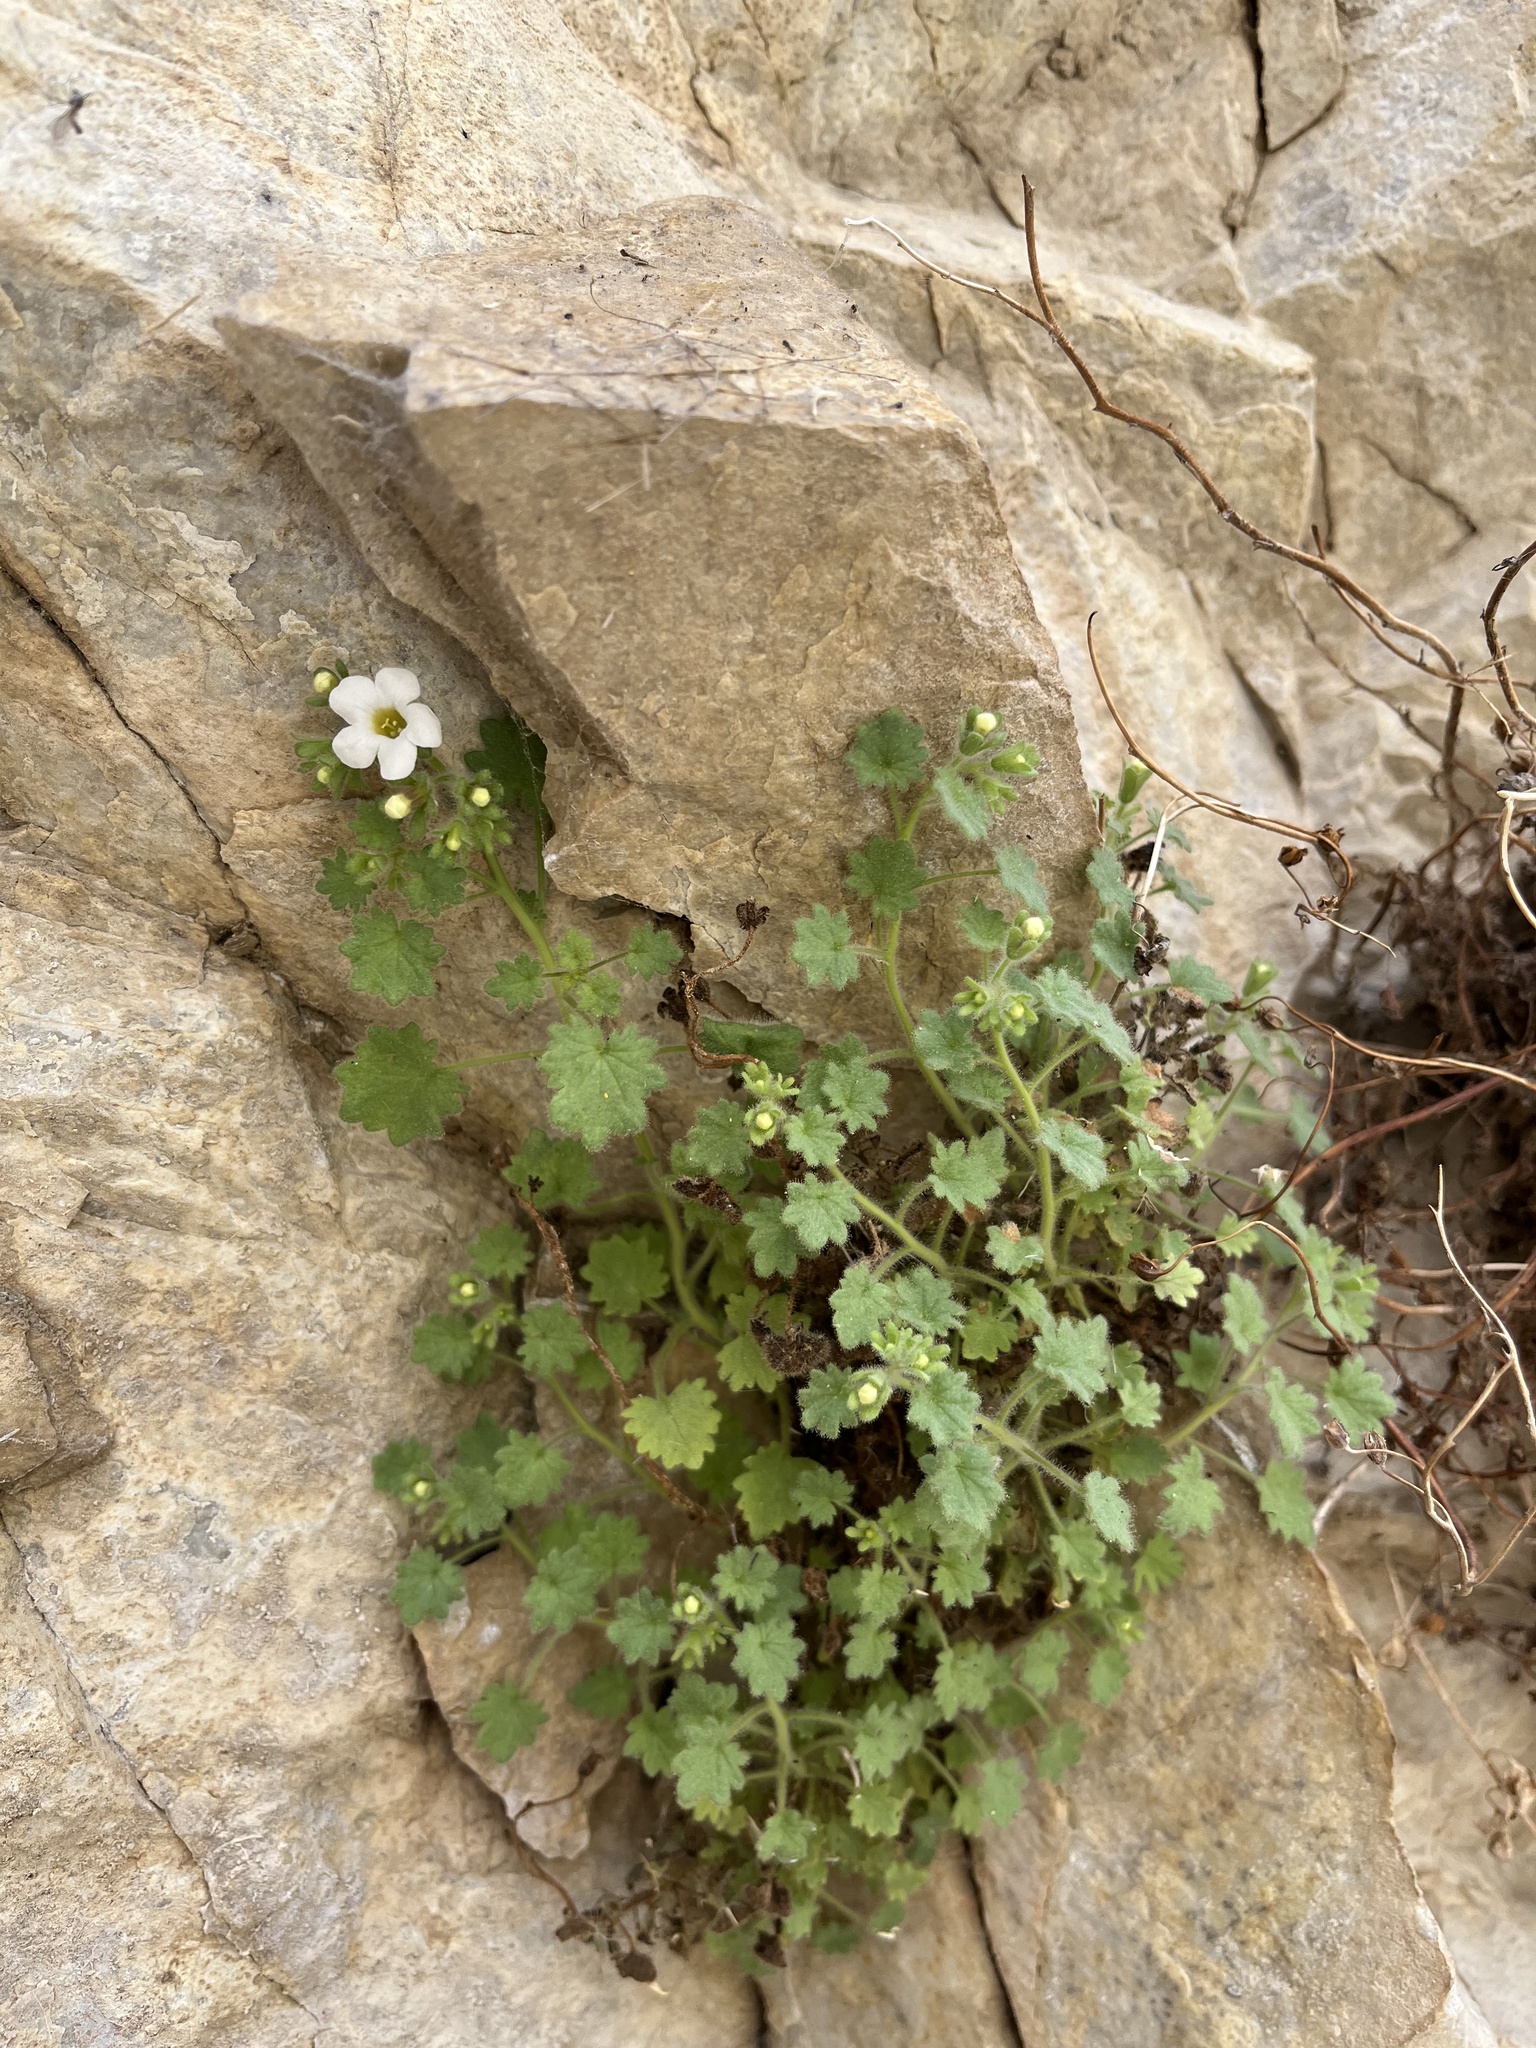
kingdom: Plantae
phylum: Tracheophyta
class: Magnoliopsida
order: Boraginales
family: Hydrophyllaceae
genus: Phacelia
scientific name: Phacelia perityloides
